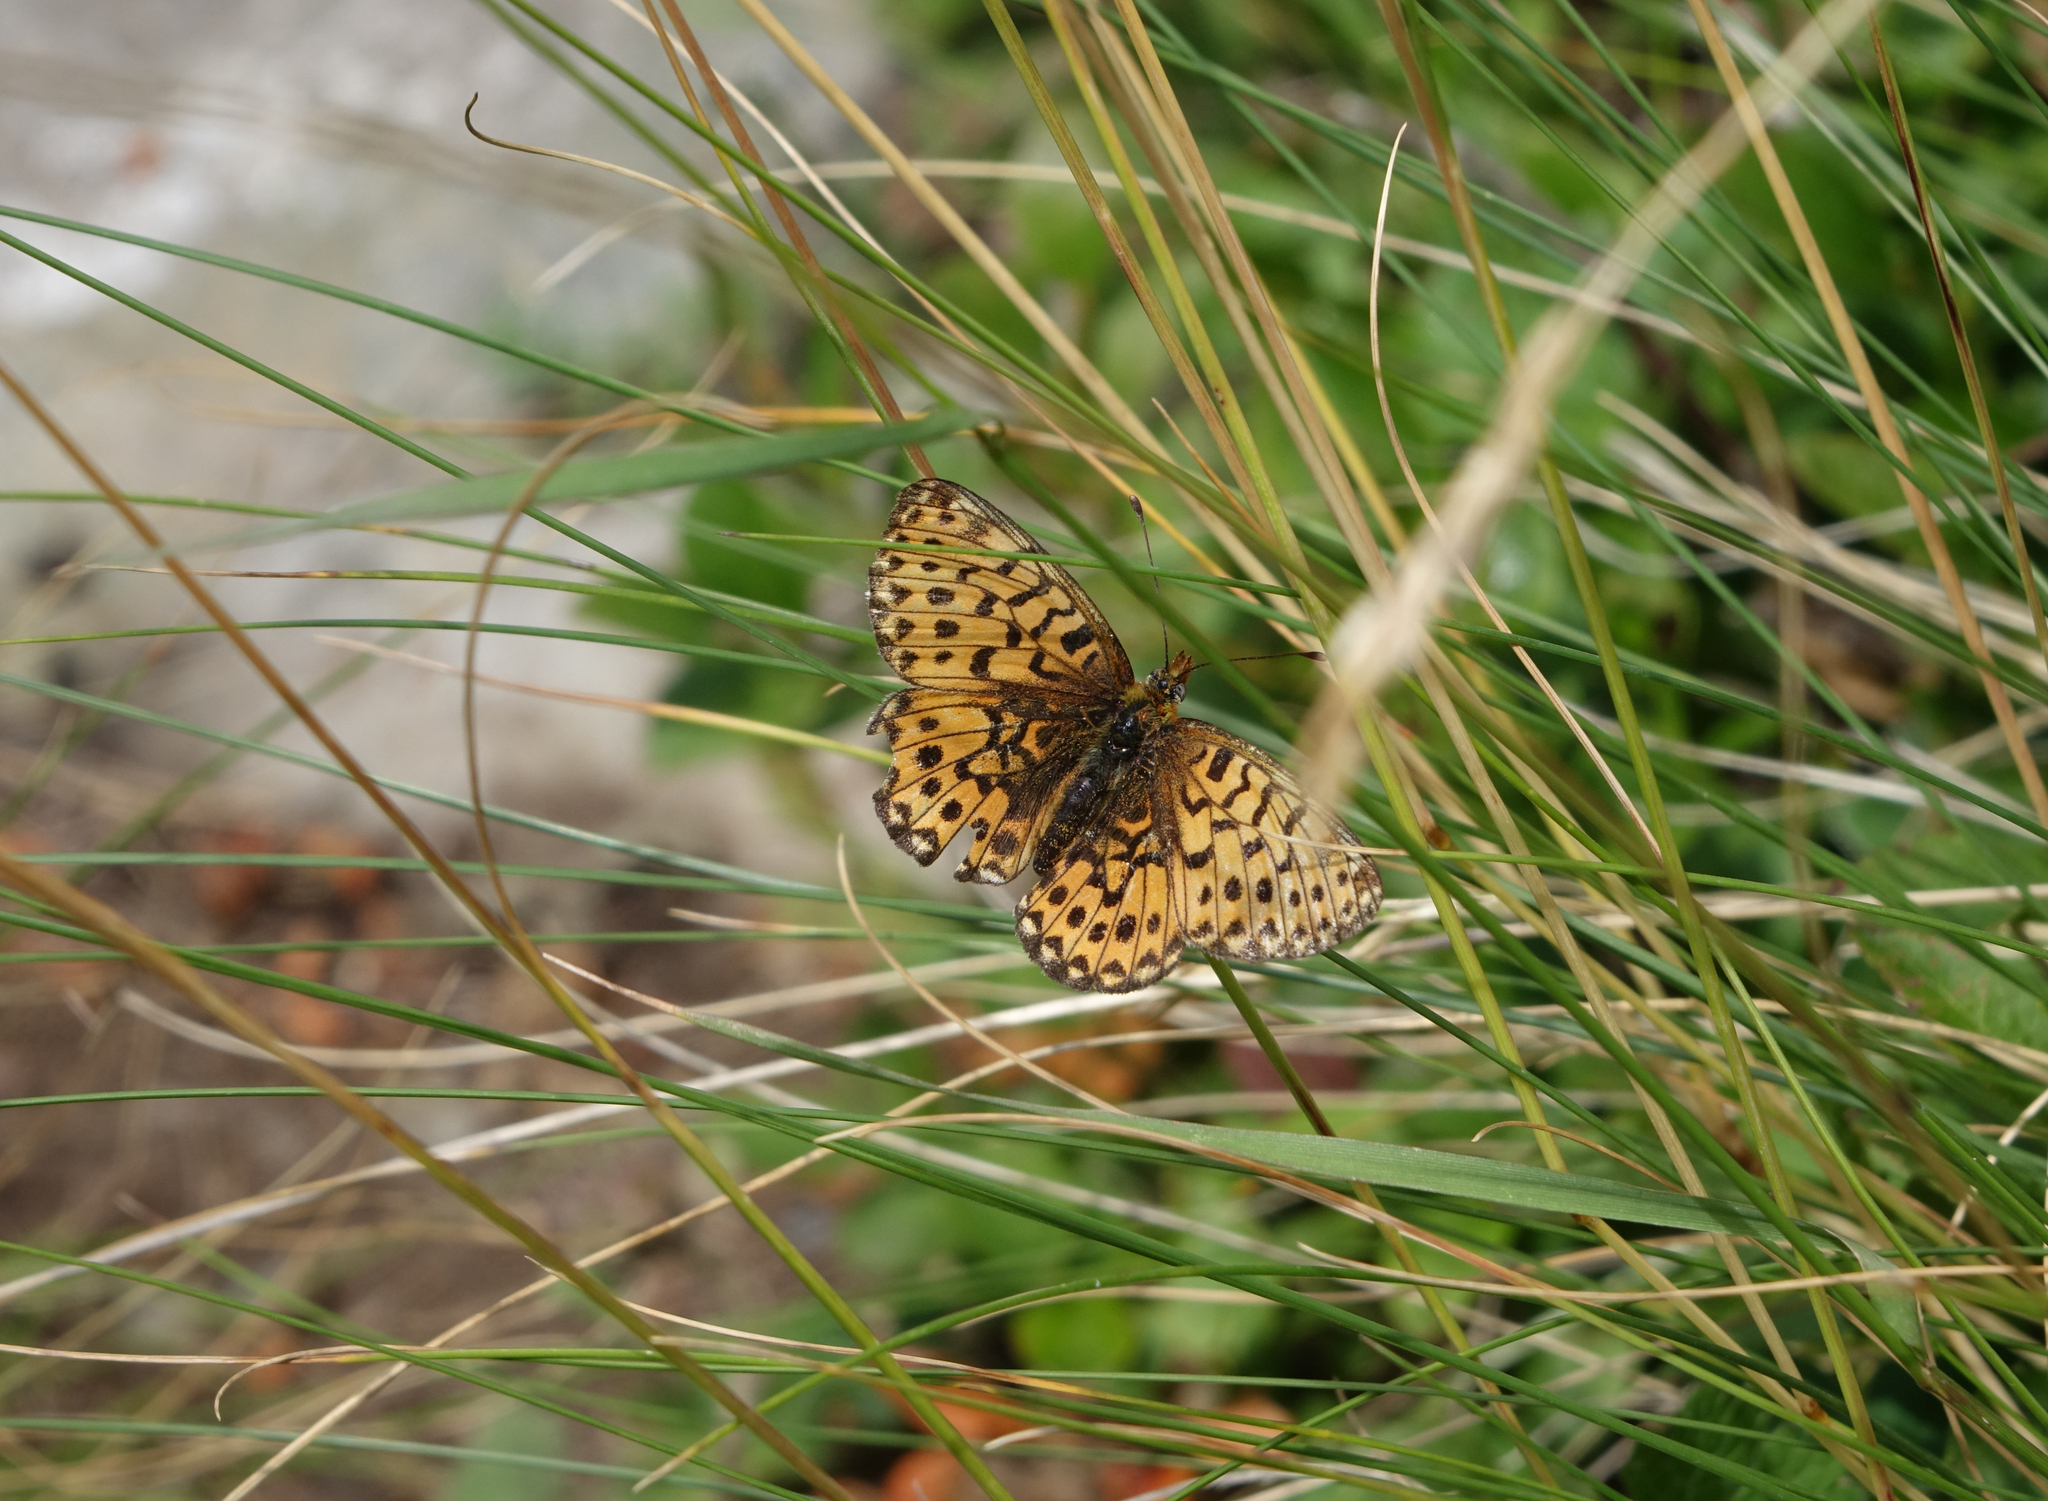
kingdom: Animalia
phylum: Arthropoda
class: Insecta
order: Lepidoptera
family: Nymphalidae
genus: Clossiana
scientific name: Clossiana euphrosyne
